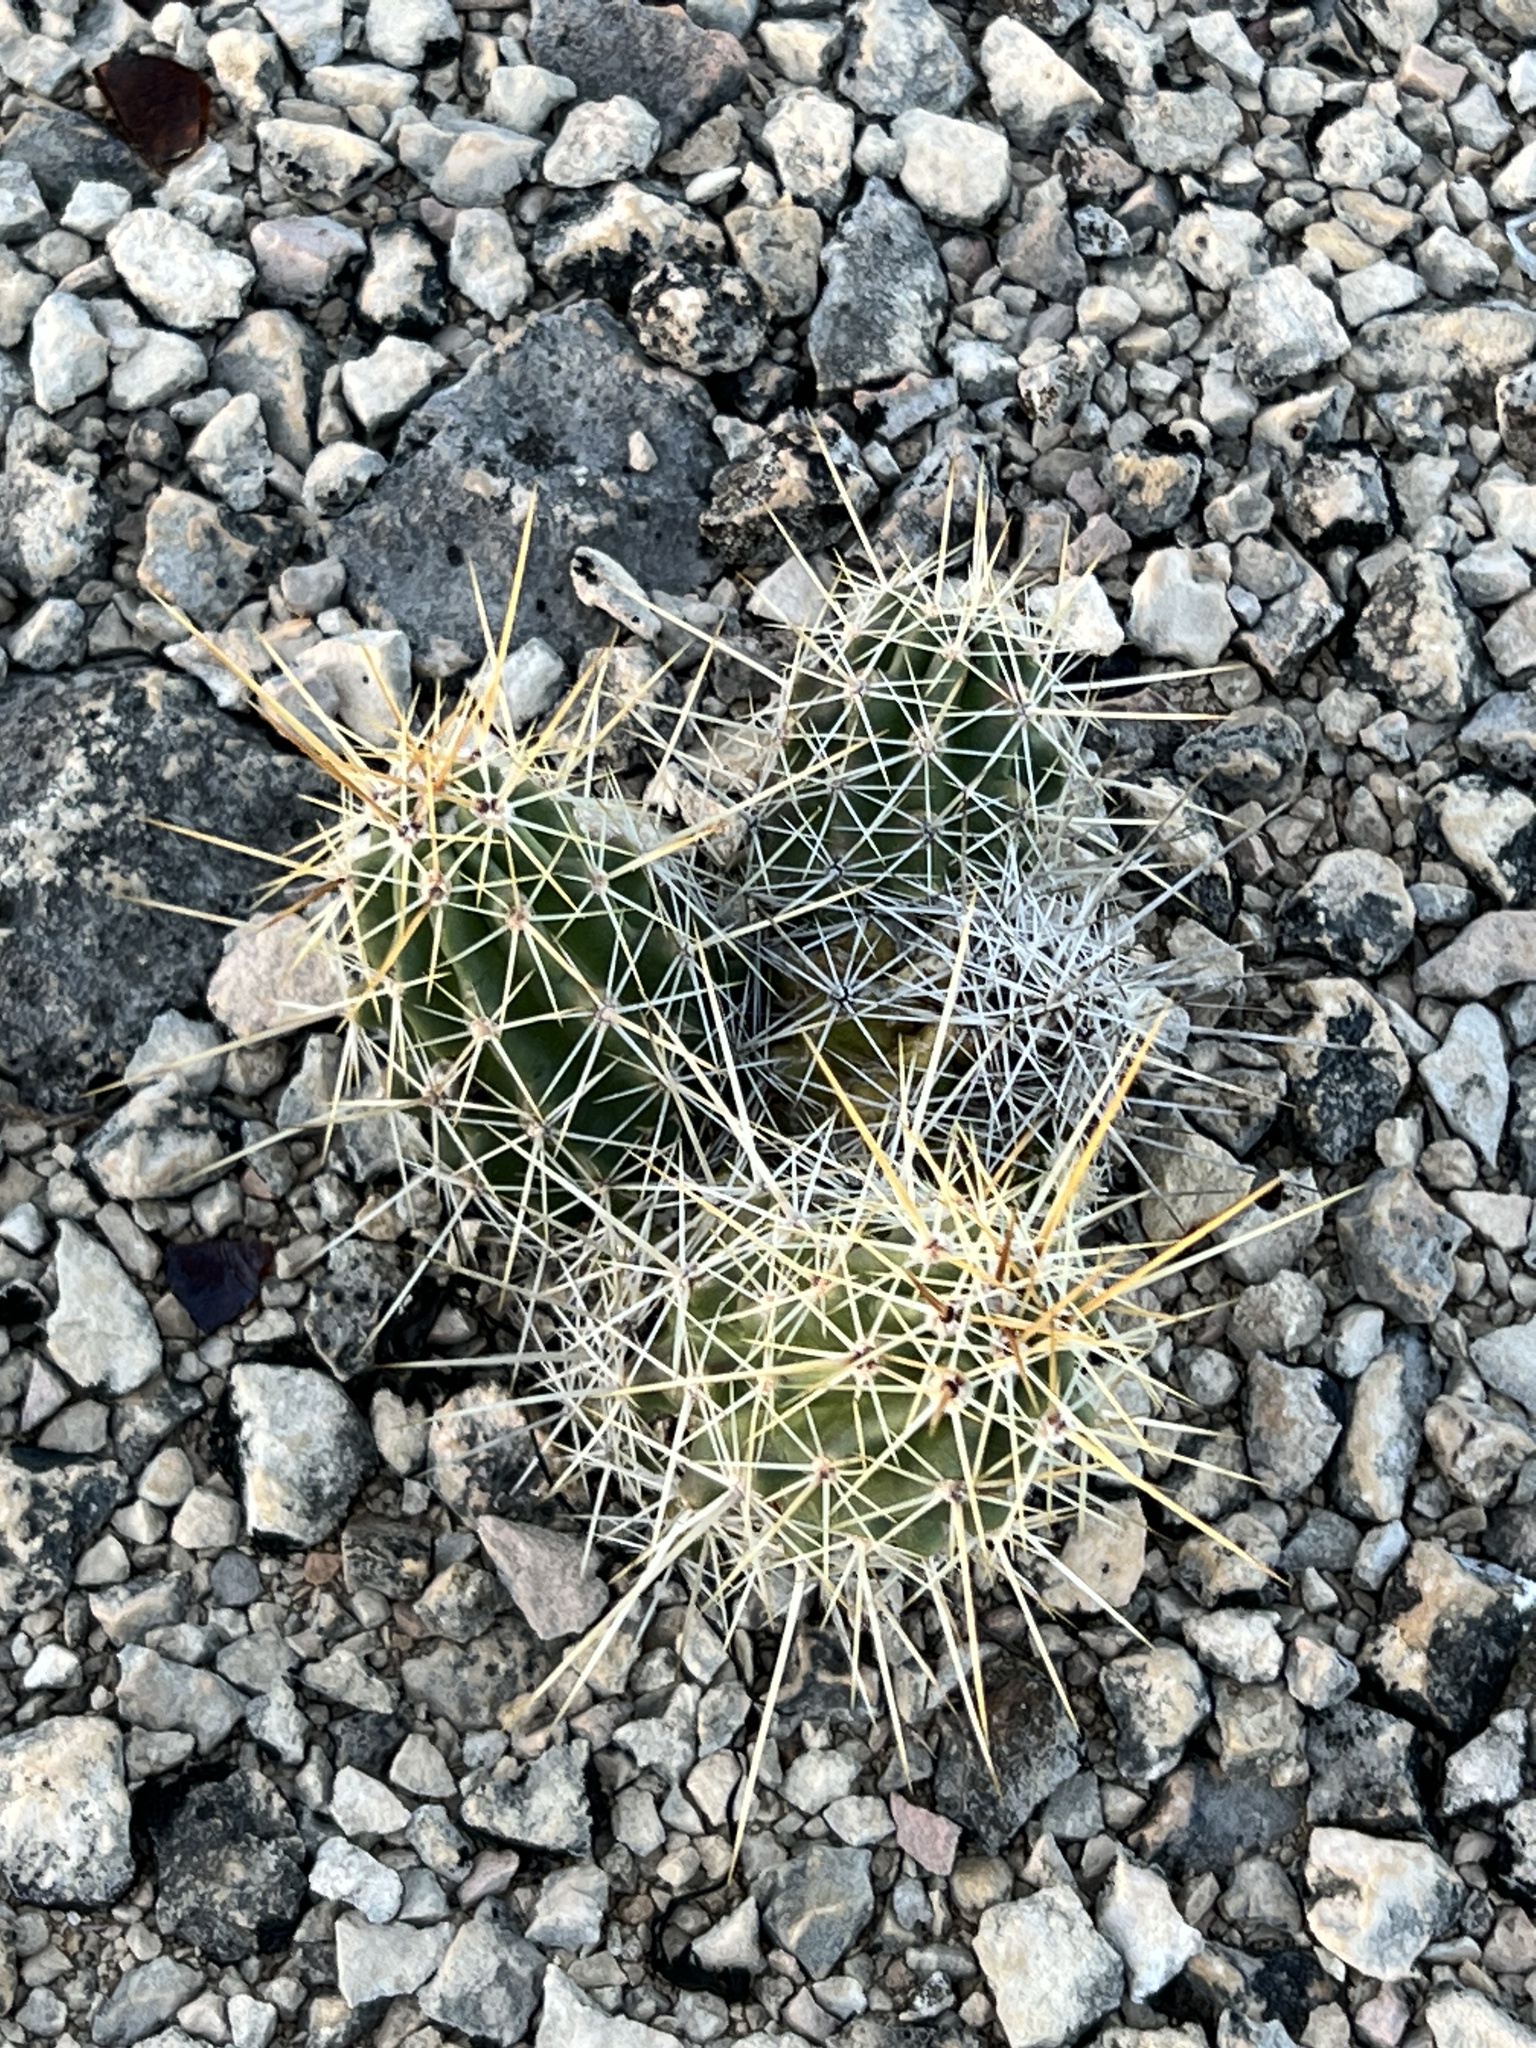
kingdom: Plantae
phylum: Tracheophyta
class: Magnoliopsida
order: Caryophyllales
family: Cactaceae
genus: Echinocereus
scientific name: Echinocereus enneacanthus
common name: Pitaya
